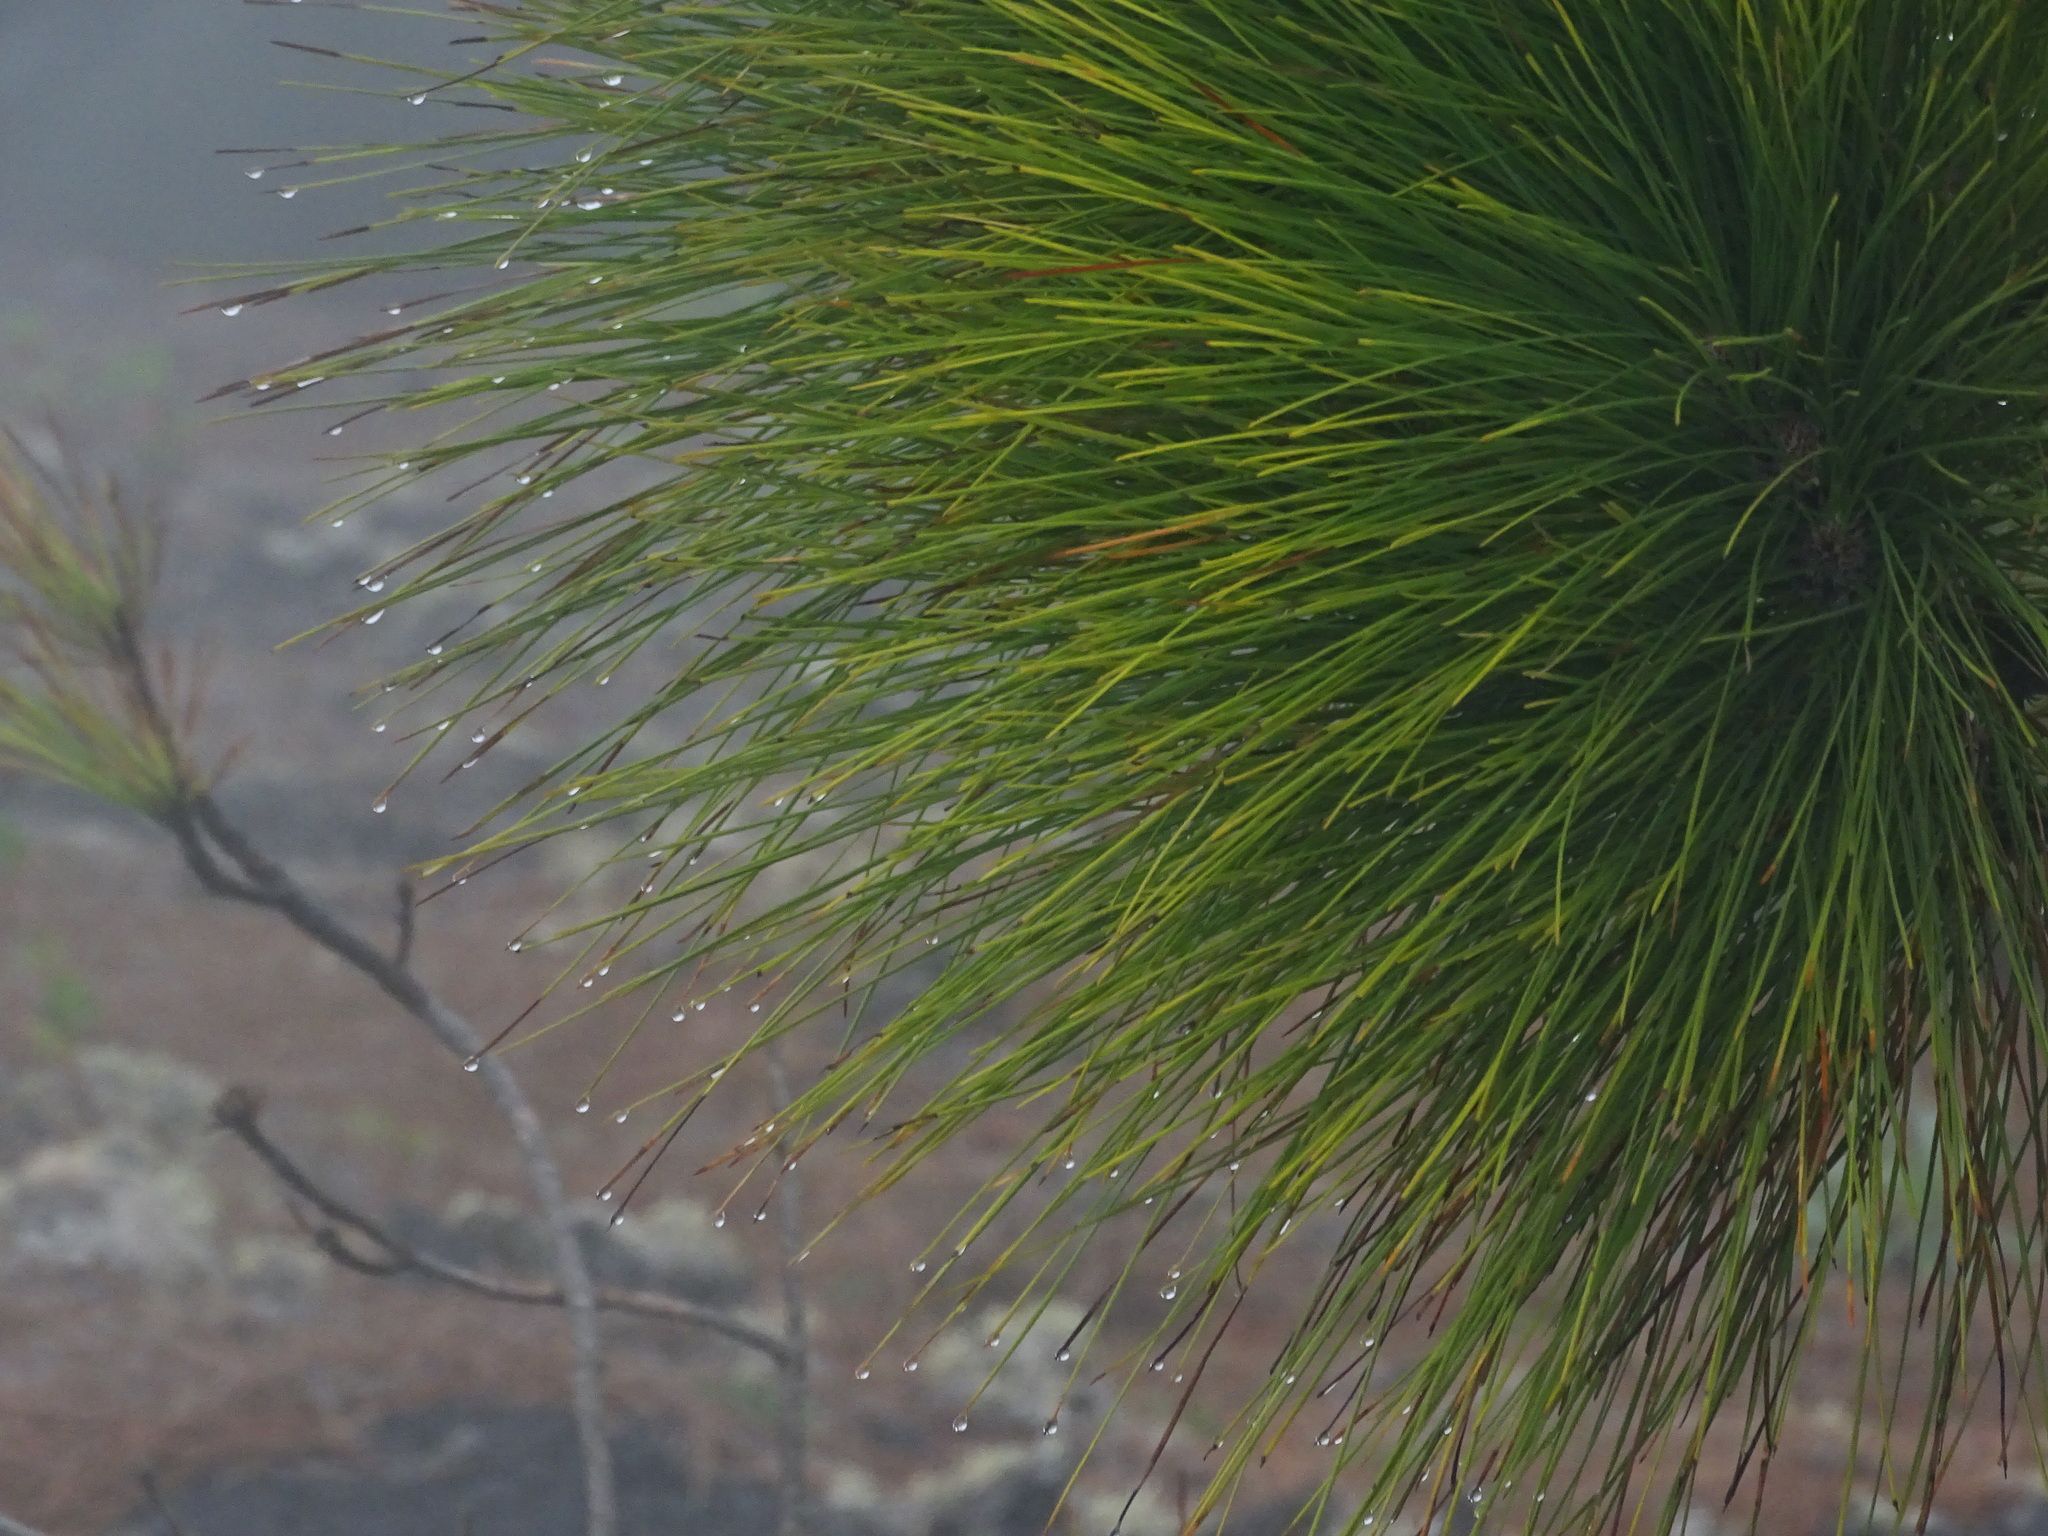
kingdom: Plantae
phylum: Tracheophyta
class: Pinopsida
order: Pinales
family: Pinaceae
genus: Pinus
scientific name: Pinus canariensis
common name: Canary islands pine
